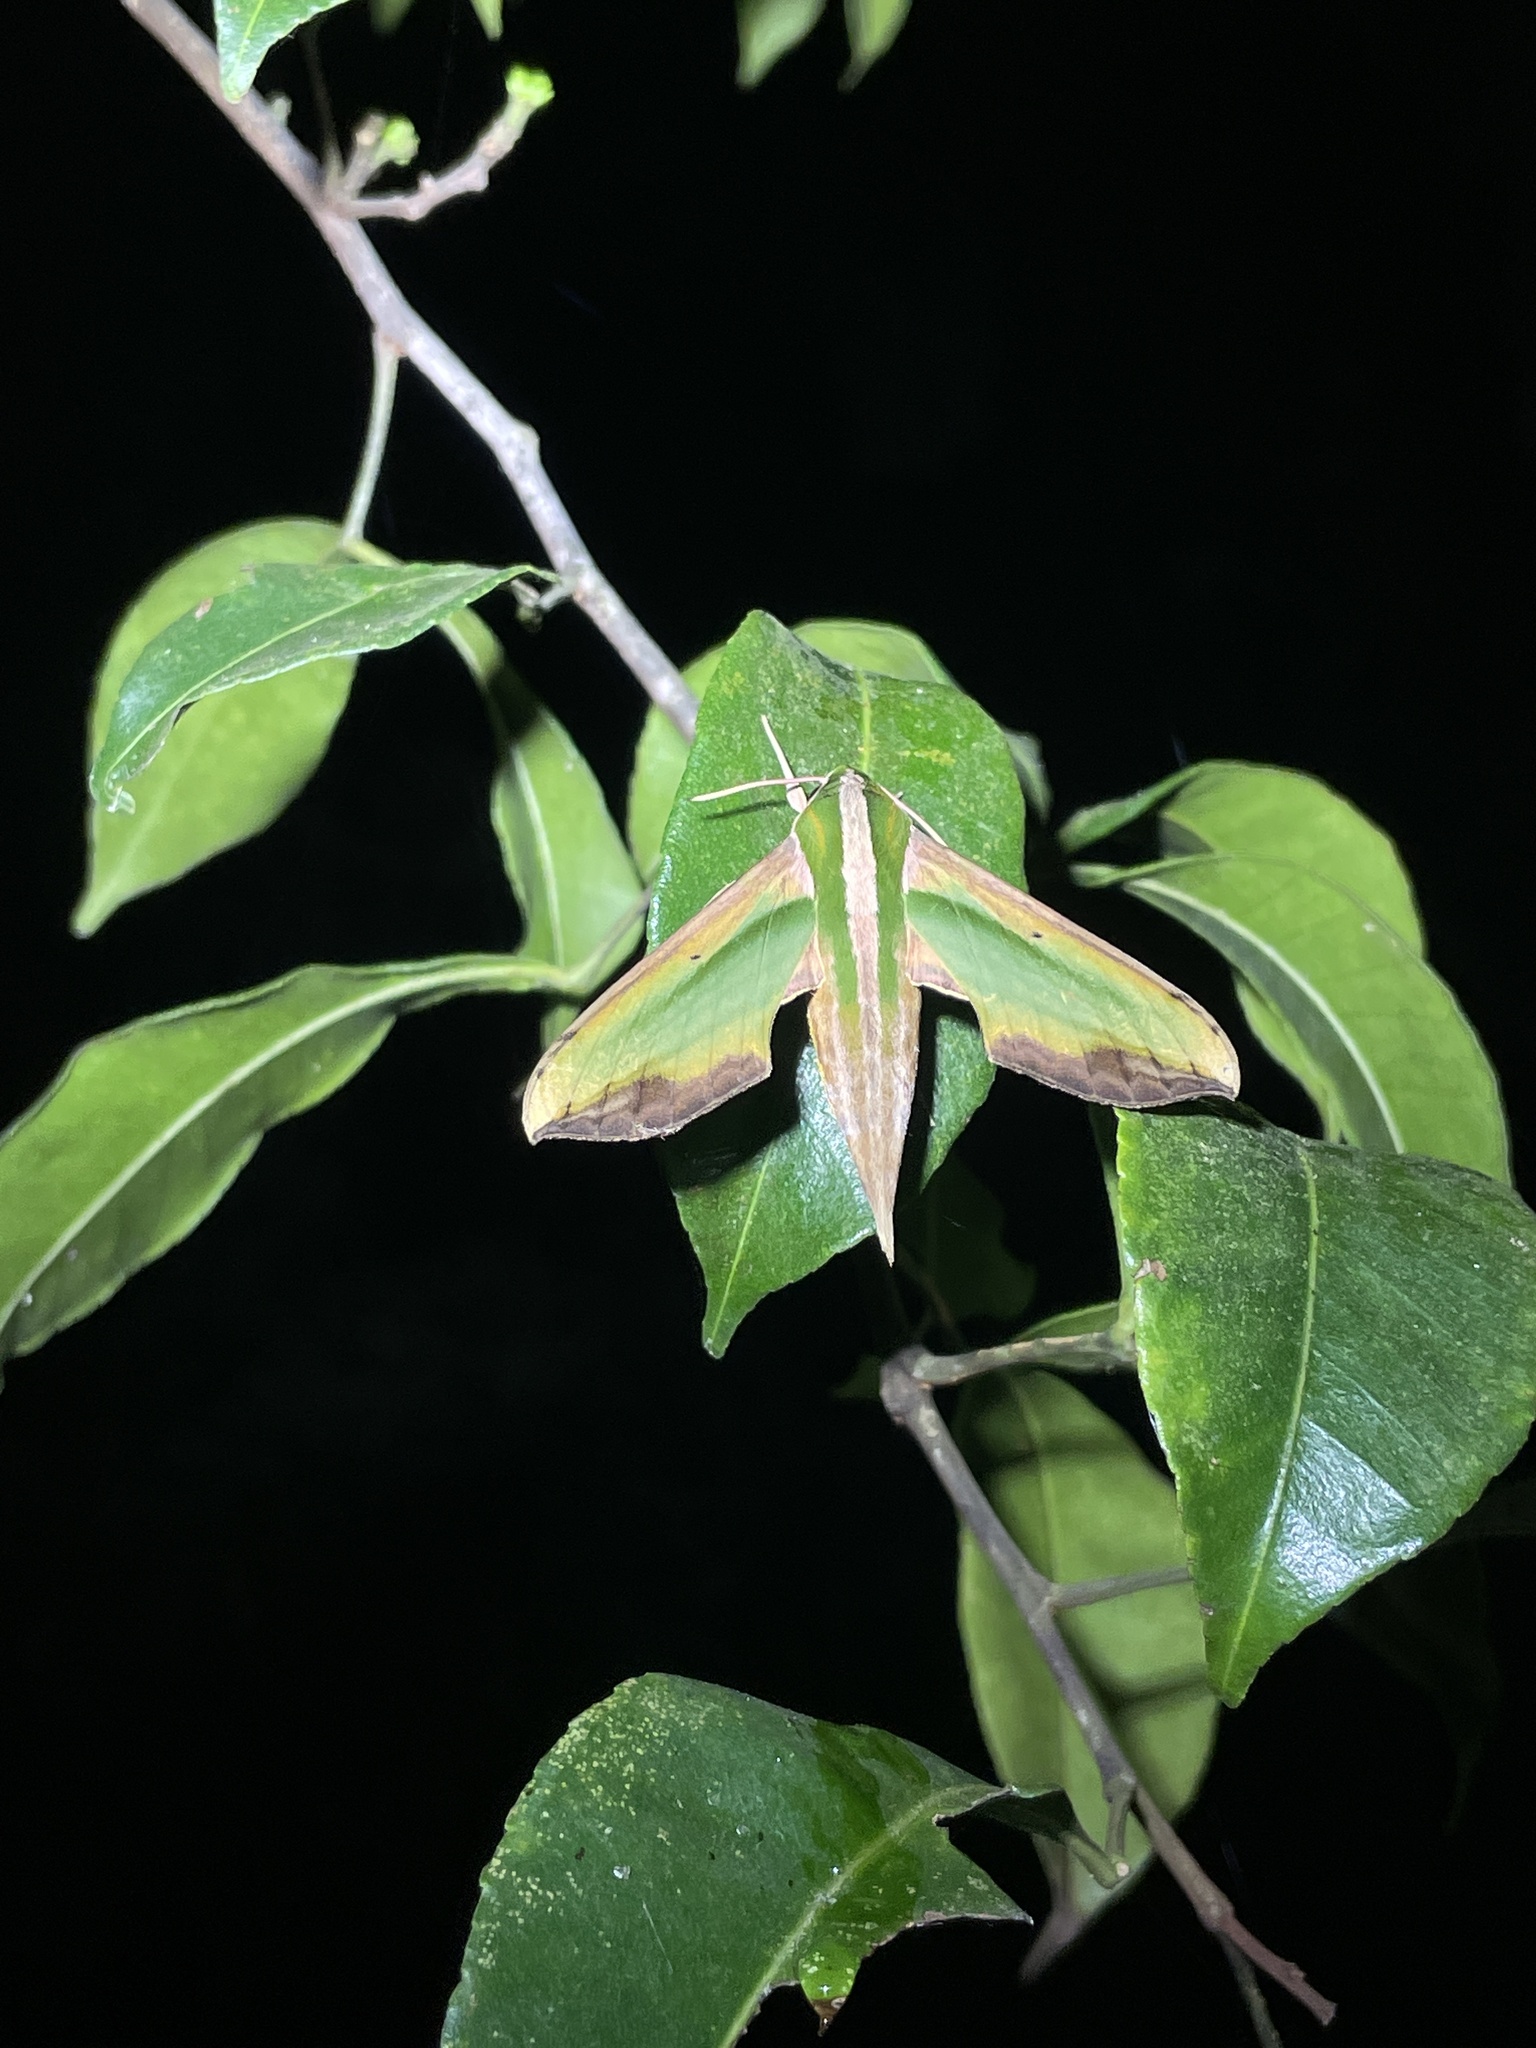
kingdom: Animalia
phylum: Arthropoda
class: Insecta
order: Lepidoptera
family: Sphingidae
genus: Pergesa
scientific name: Pergesa acteus
